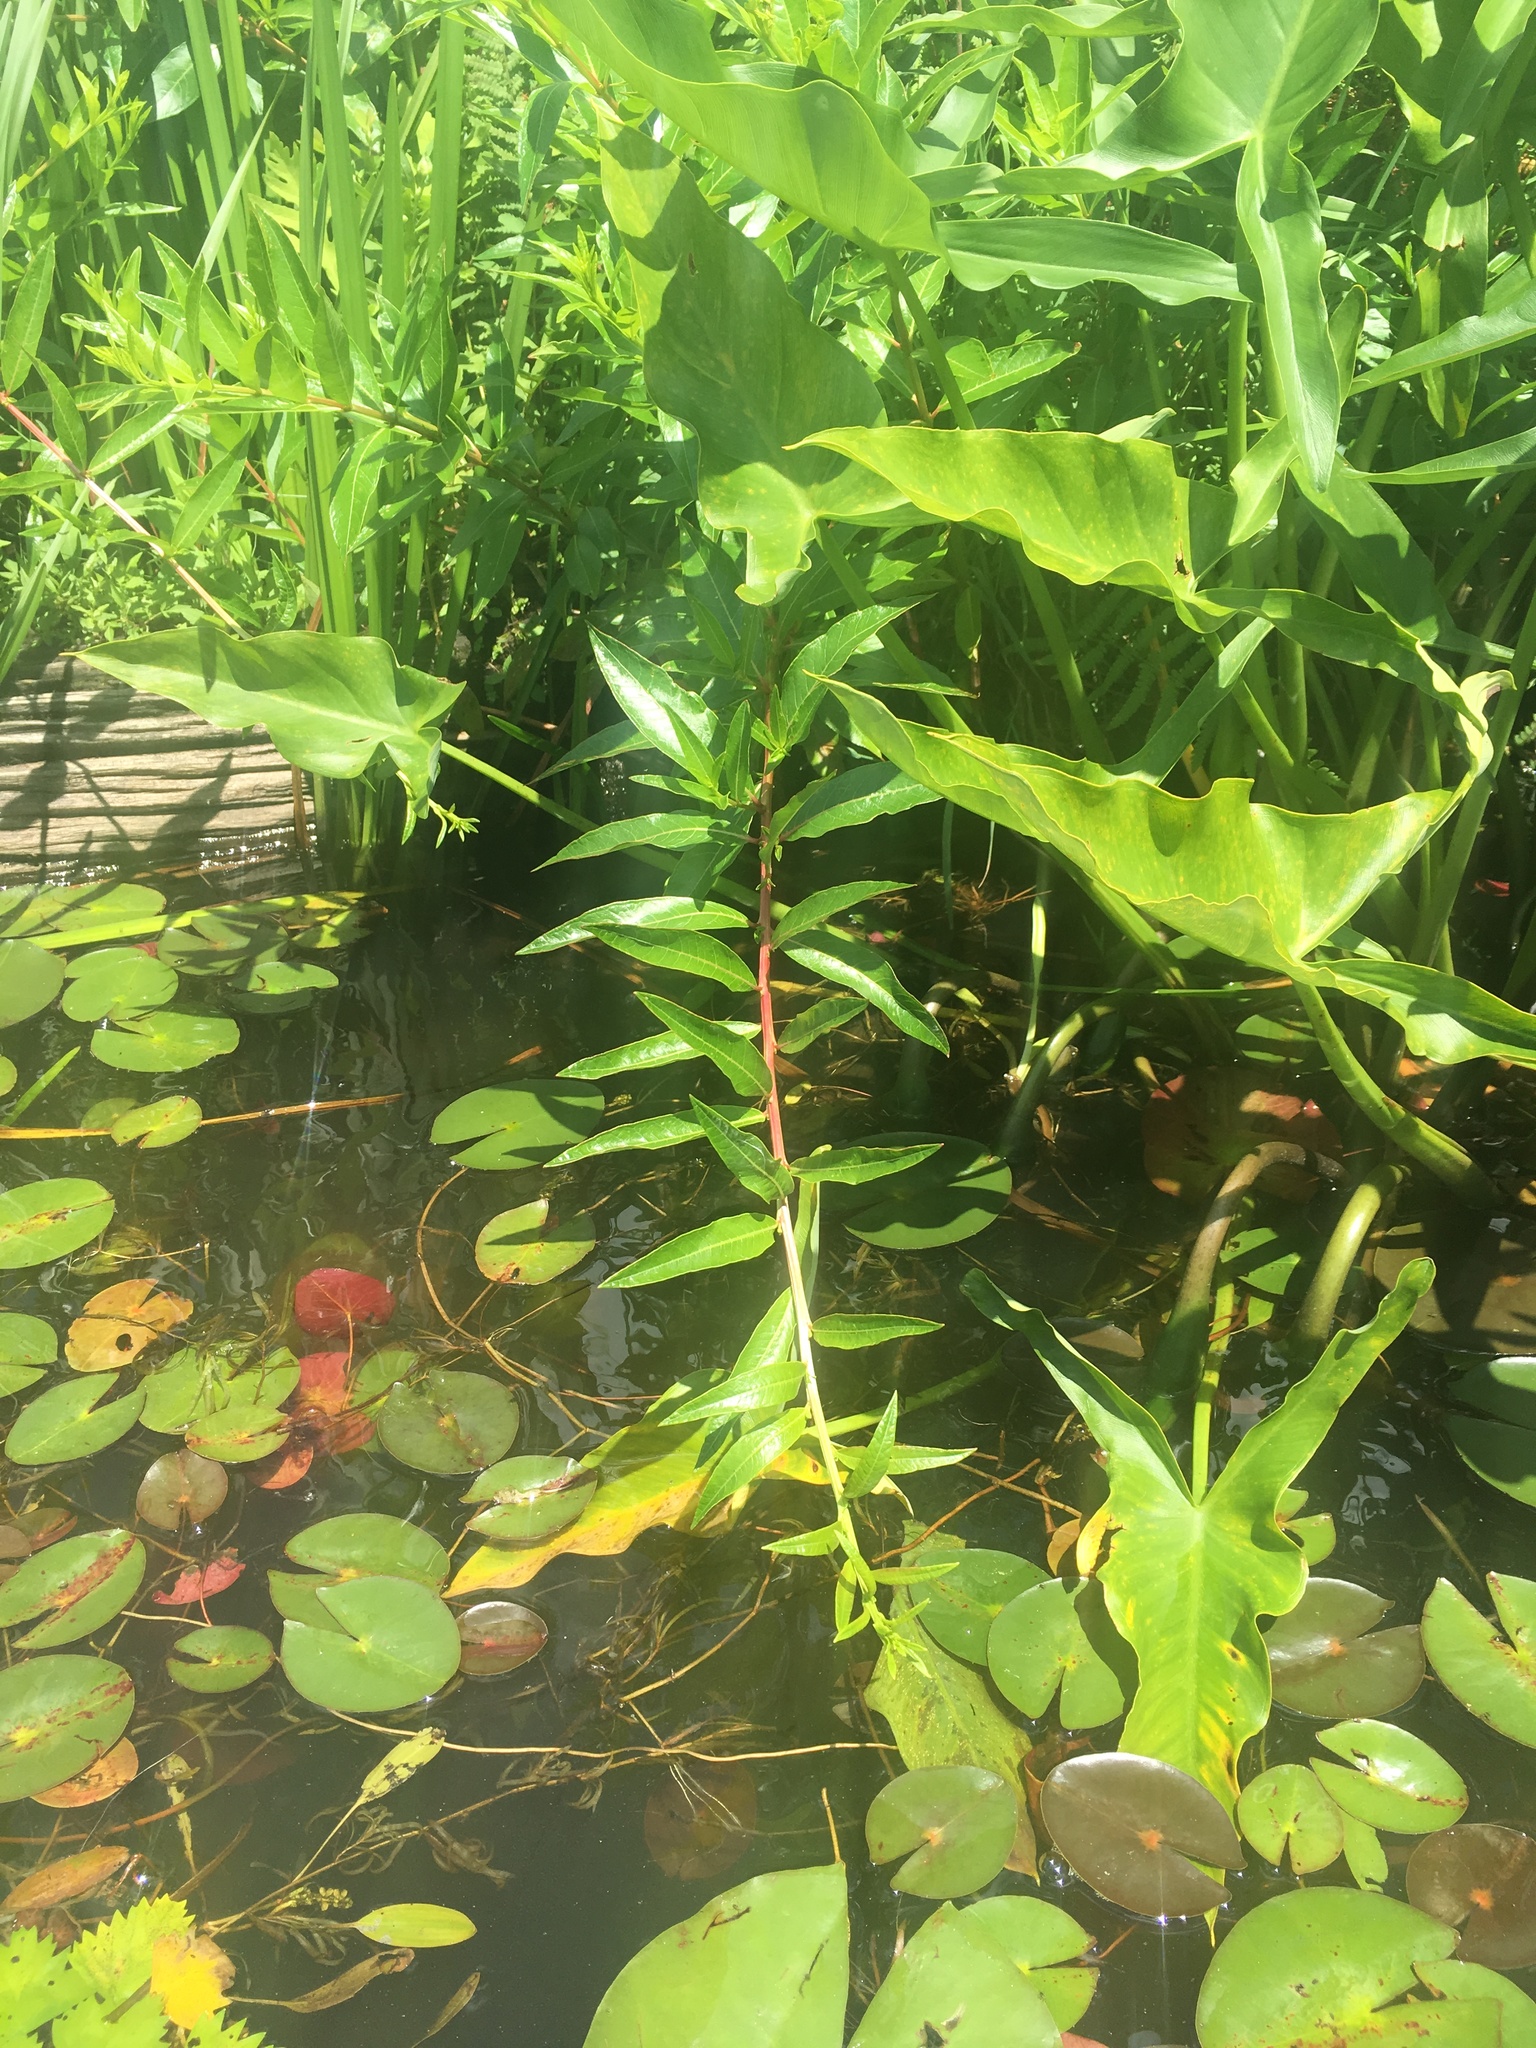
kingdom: Plantae
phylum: Tracheophyta
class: Magnoliopsida
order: Myrtales
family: Lythraceae
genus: Decodon
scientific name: Decodon verticillatus
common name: Hairy swamp loosestrife
